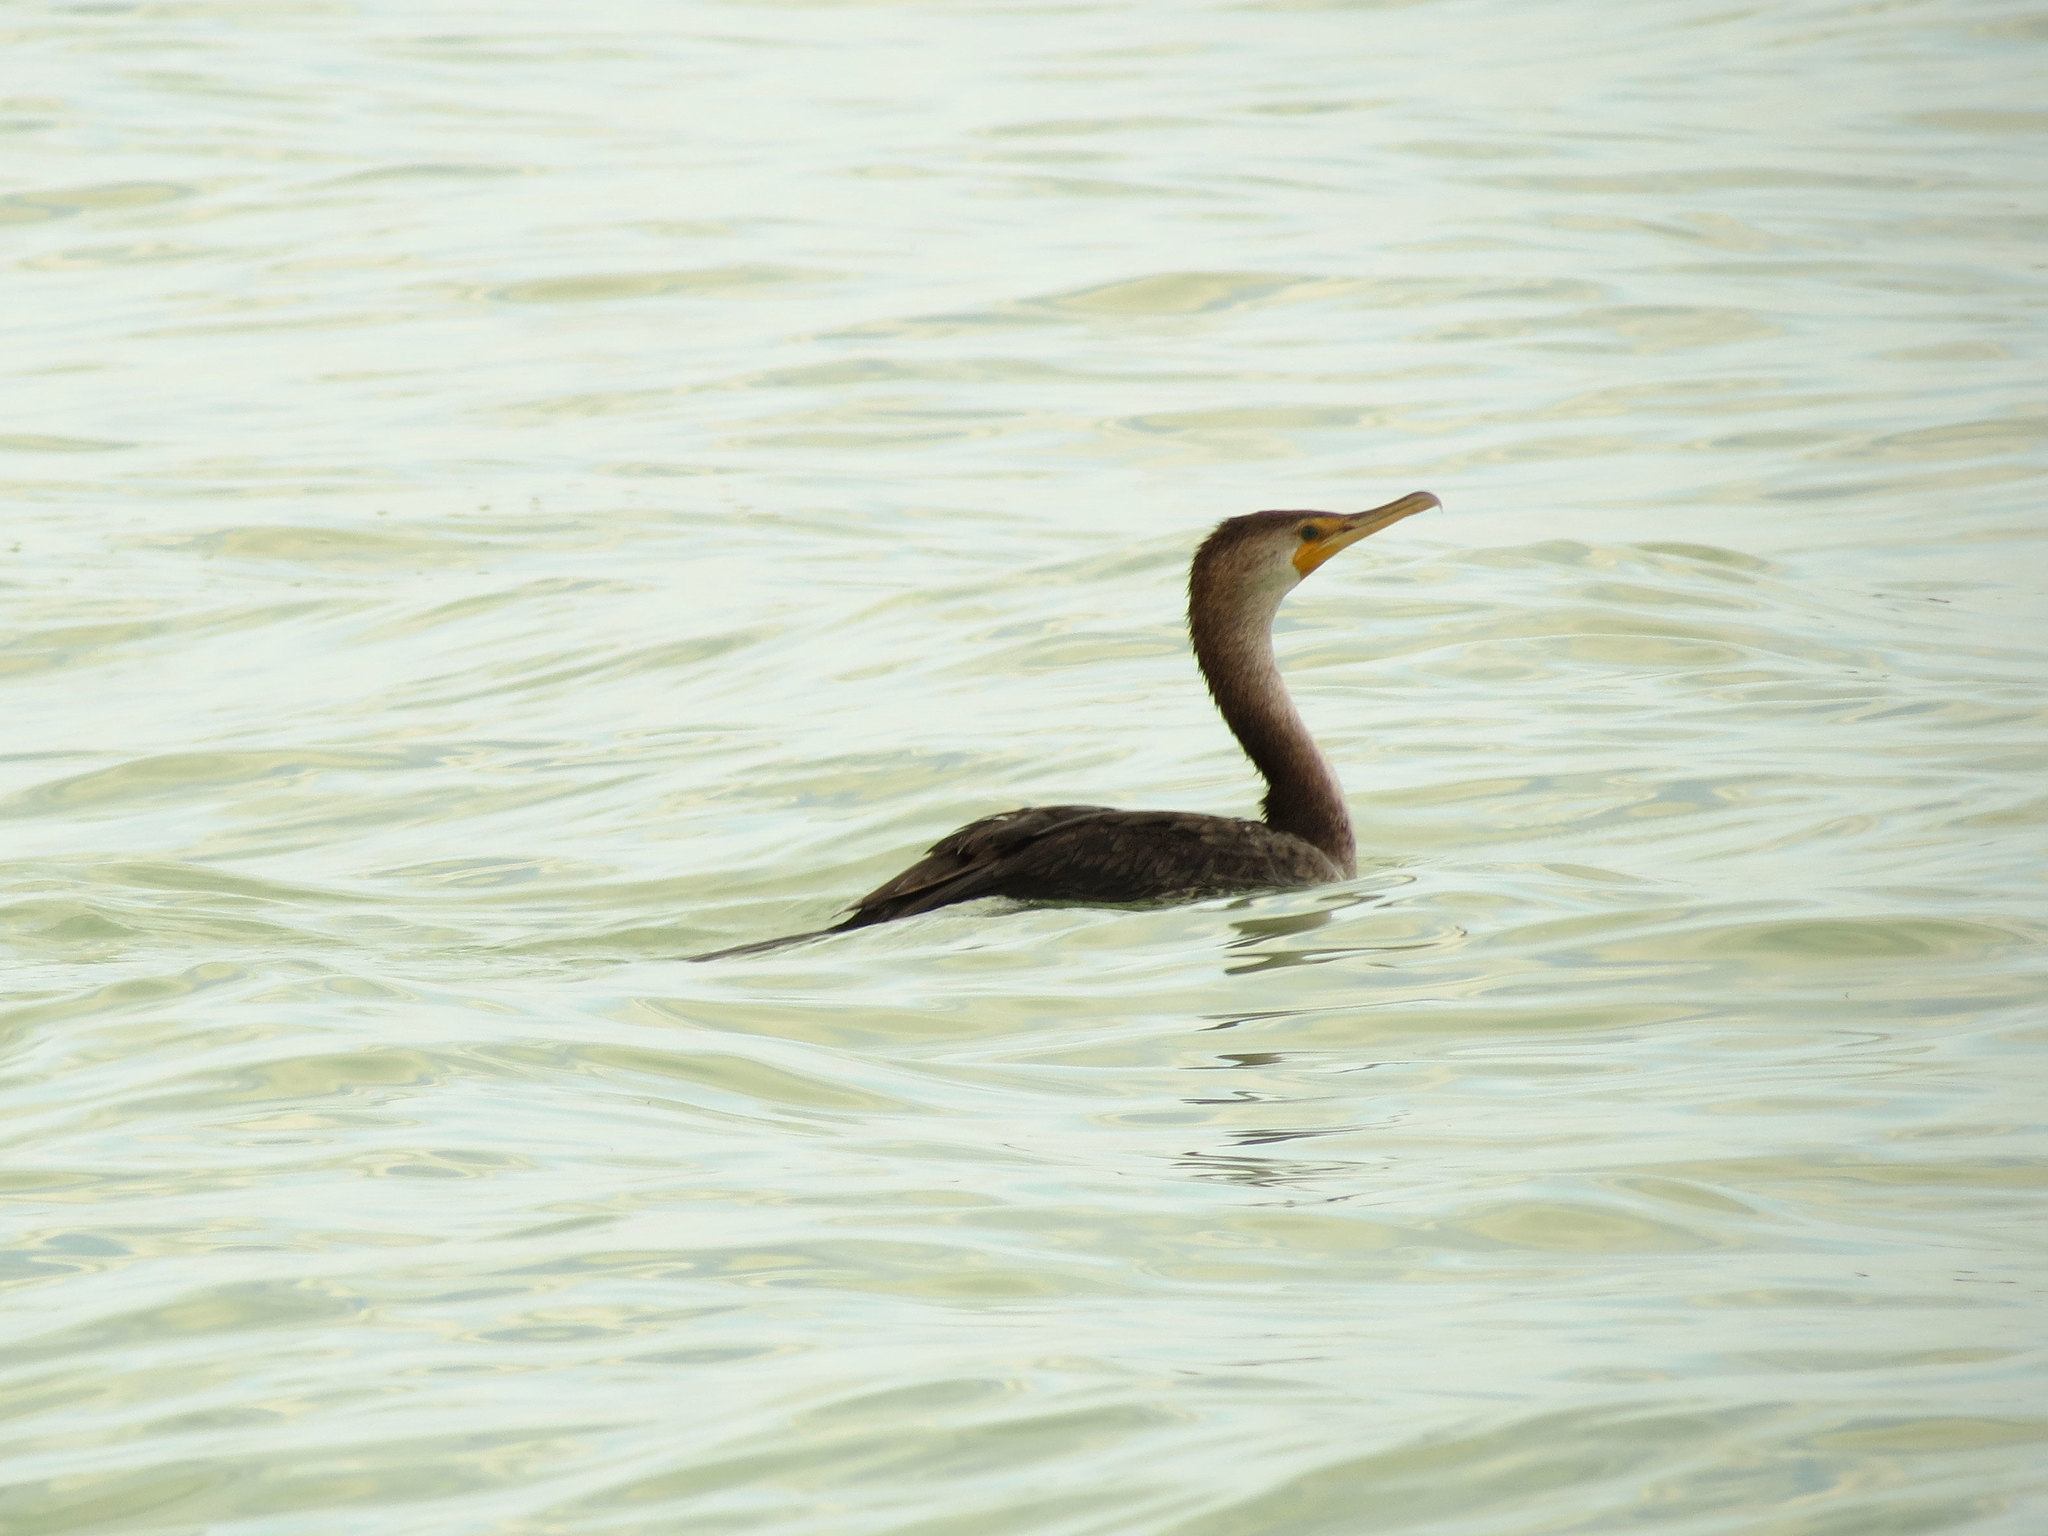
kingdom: Animalia
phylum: Chordata
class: Aves
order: Suliformes
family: Phalacrocoracidae
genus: Phalacrocorax
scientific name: Phalacrocorax auritus
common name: Double-crested cormorant
